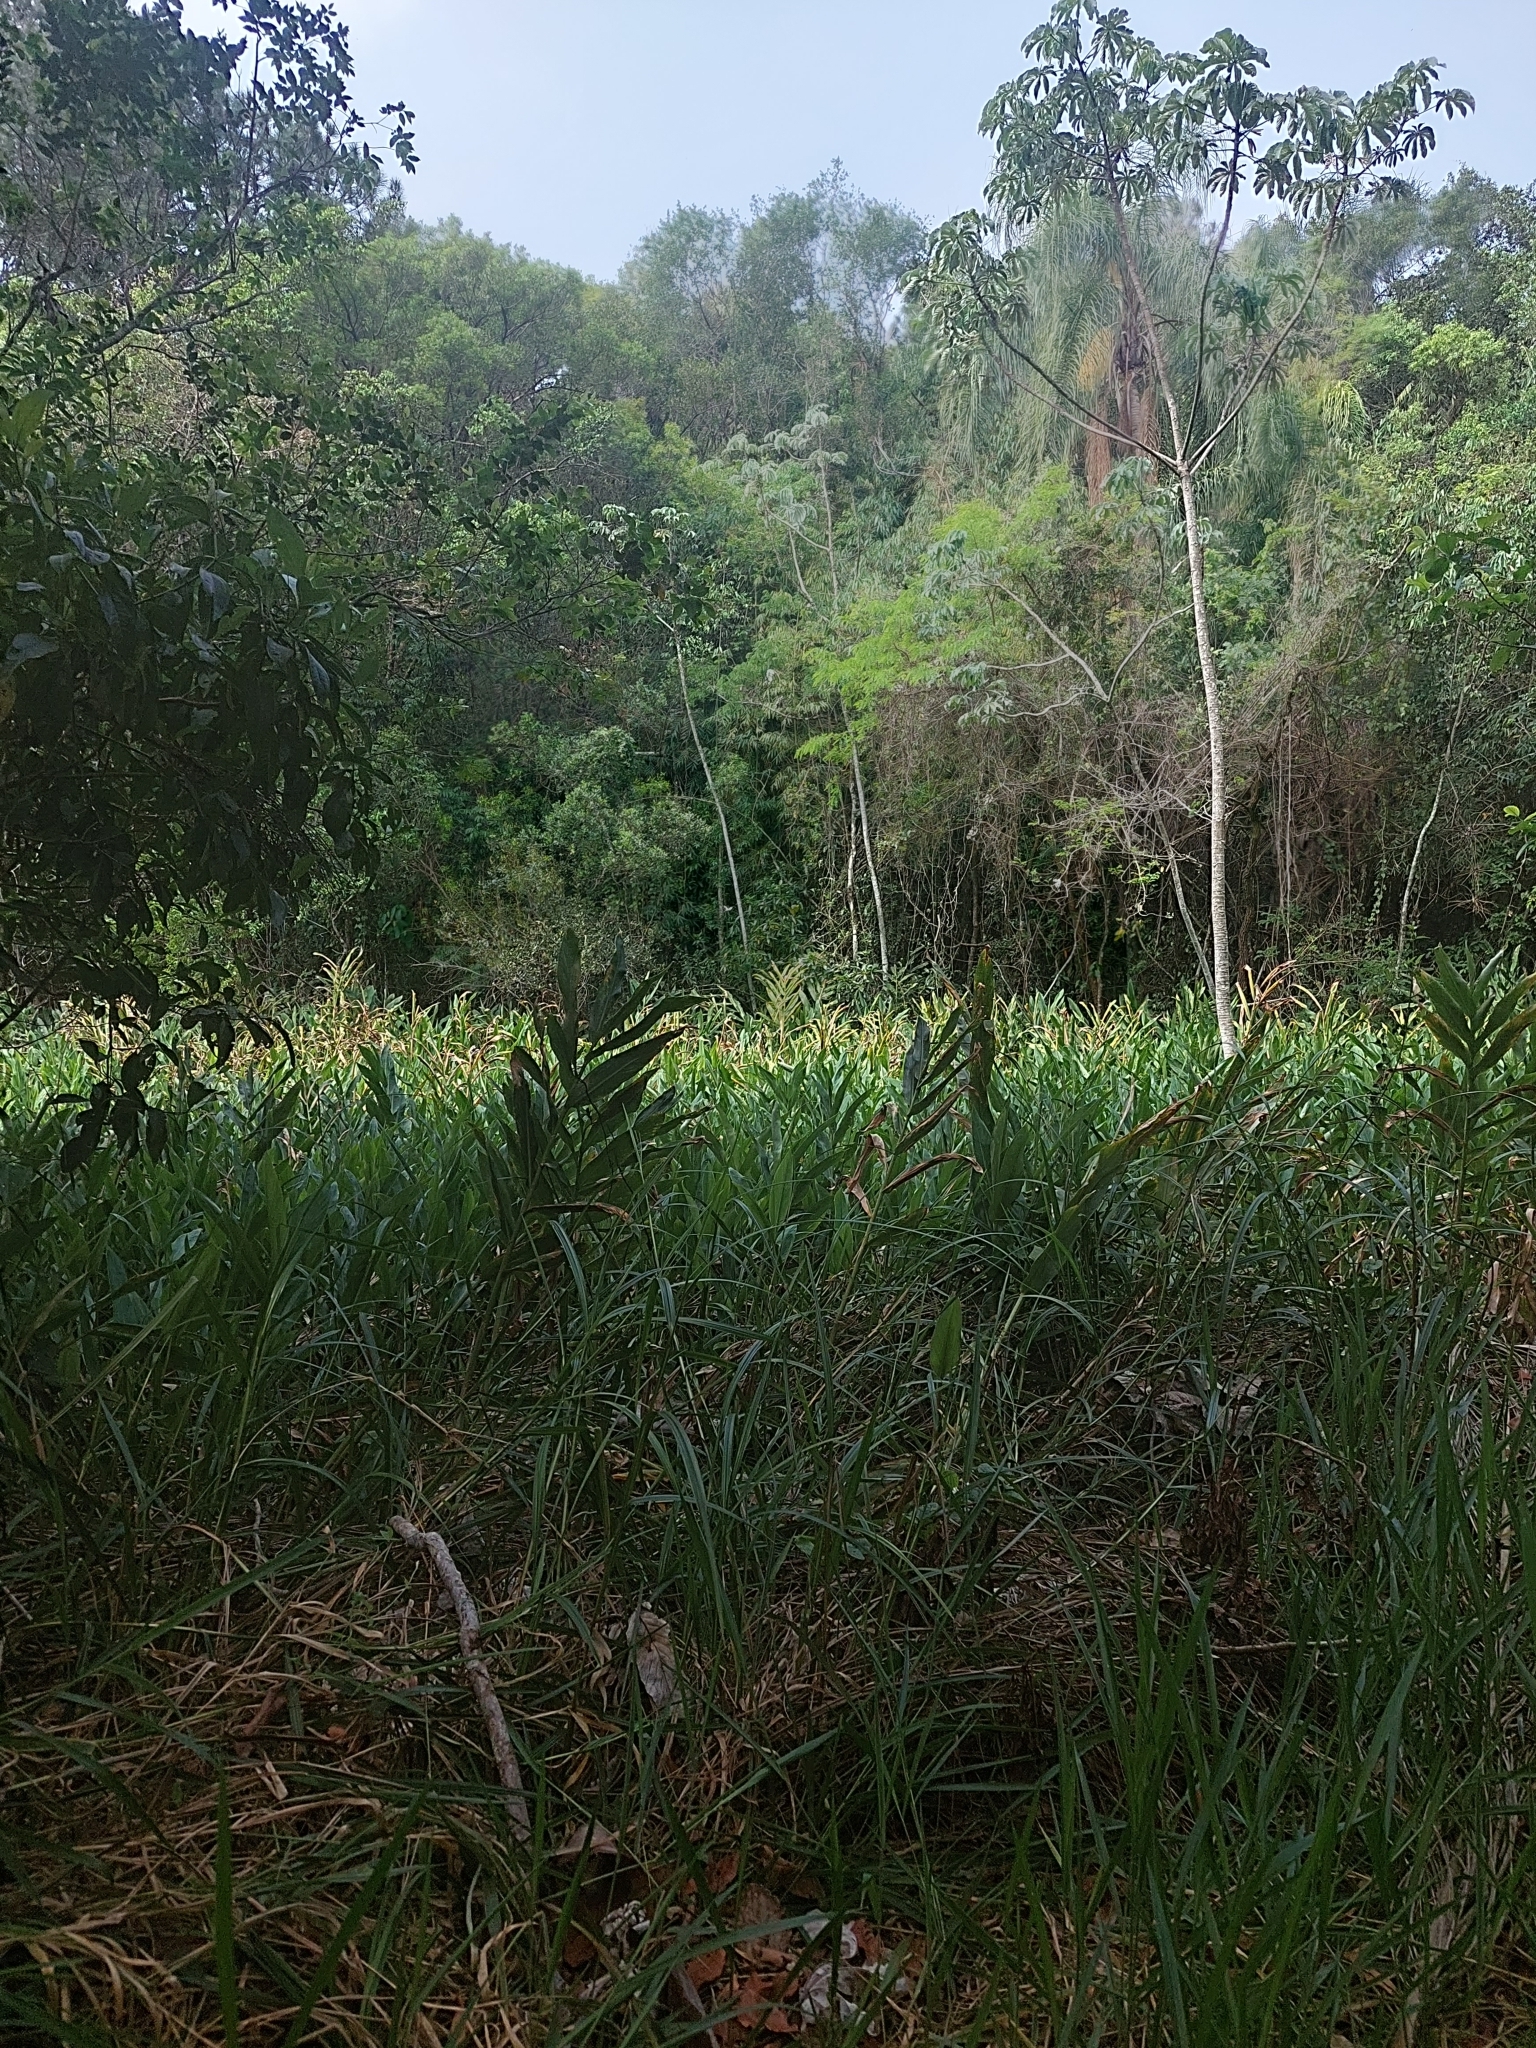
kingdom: Plantae
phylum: Tracheophyta
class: Liliopsida
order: Zingiberales
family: Zingiberaceae
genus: Hedychium
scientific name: Hedychium coronarium
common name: White garland-lily
